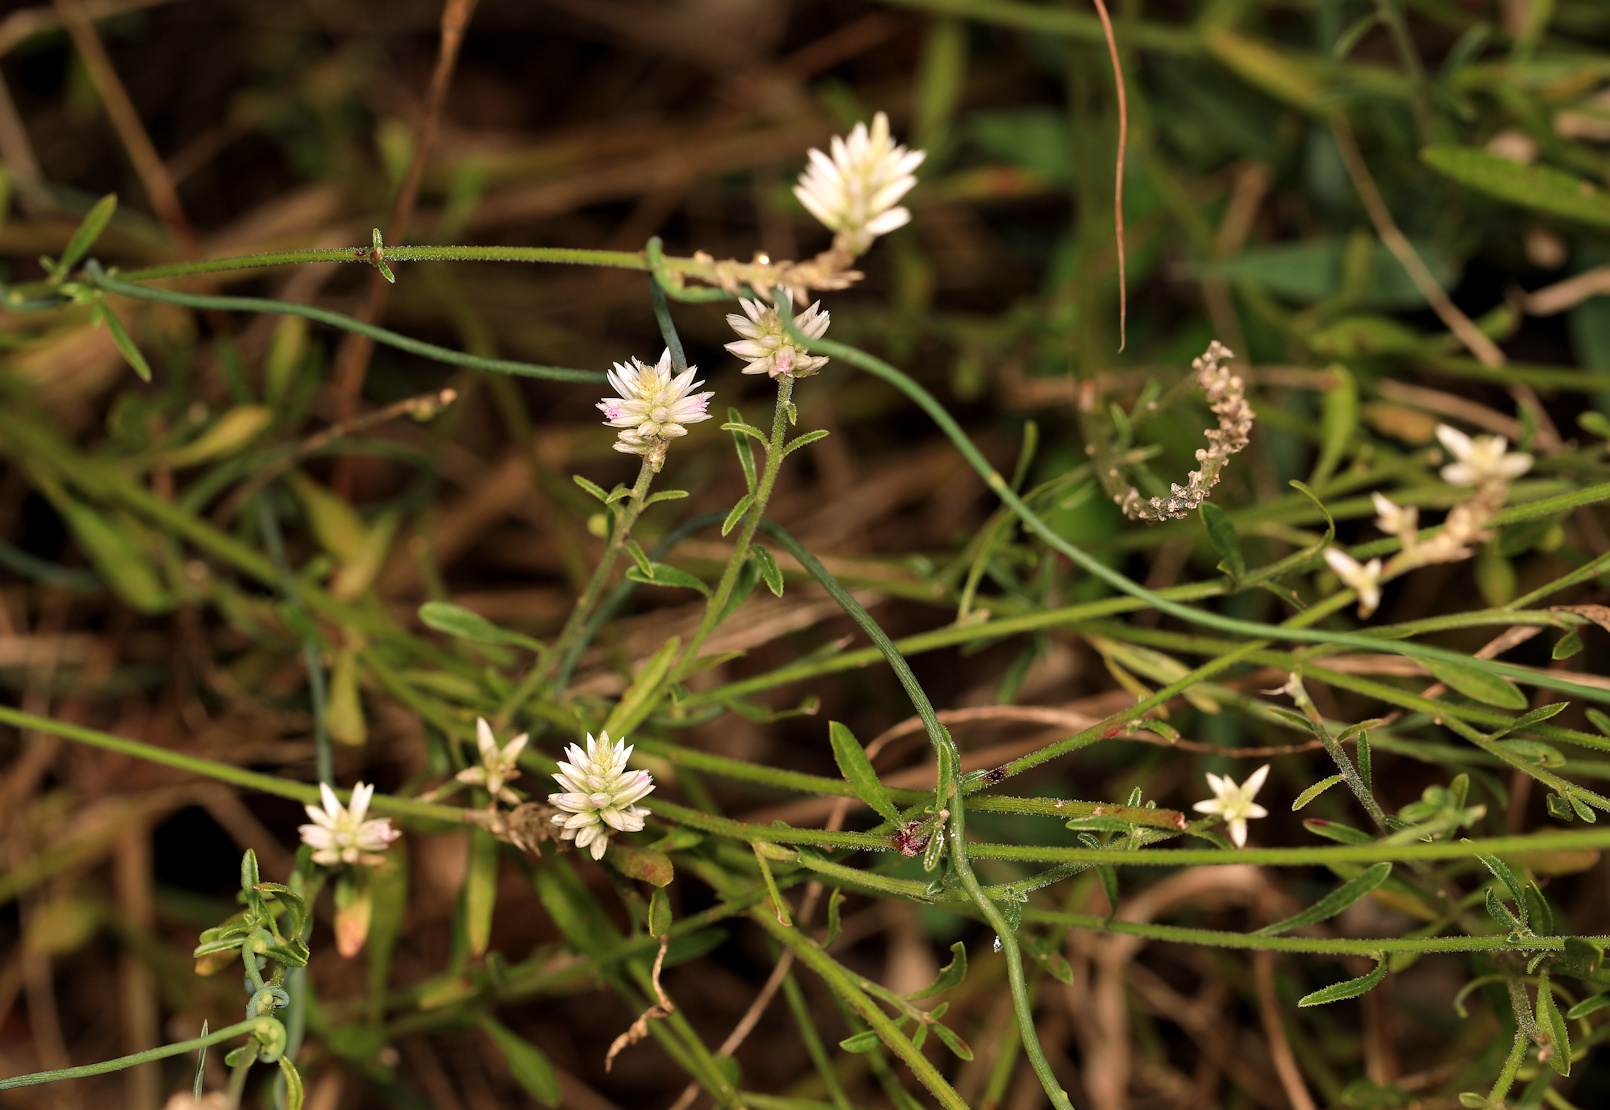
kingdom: Plantae
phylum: Tracheophyta
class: Magnoliopsida
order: Caryophyllales
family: Amaranthaceae
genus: Hermbstaedtia
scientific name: Hermbstaedtia odorata
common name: Guineaflower
